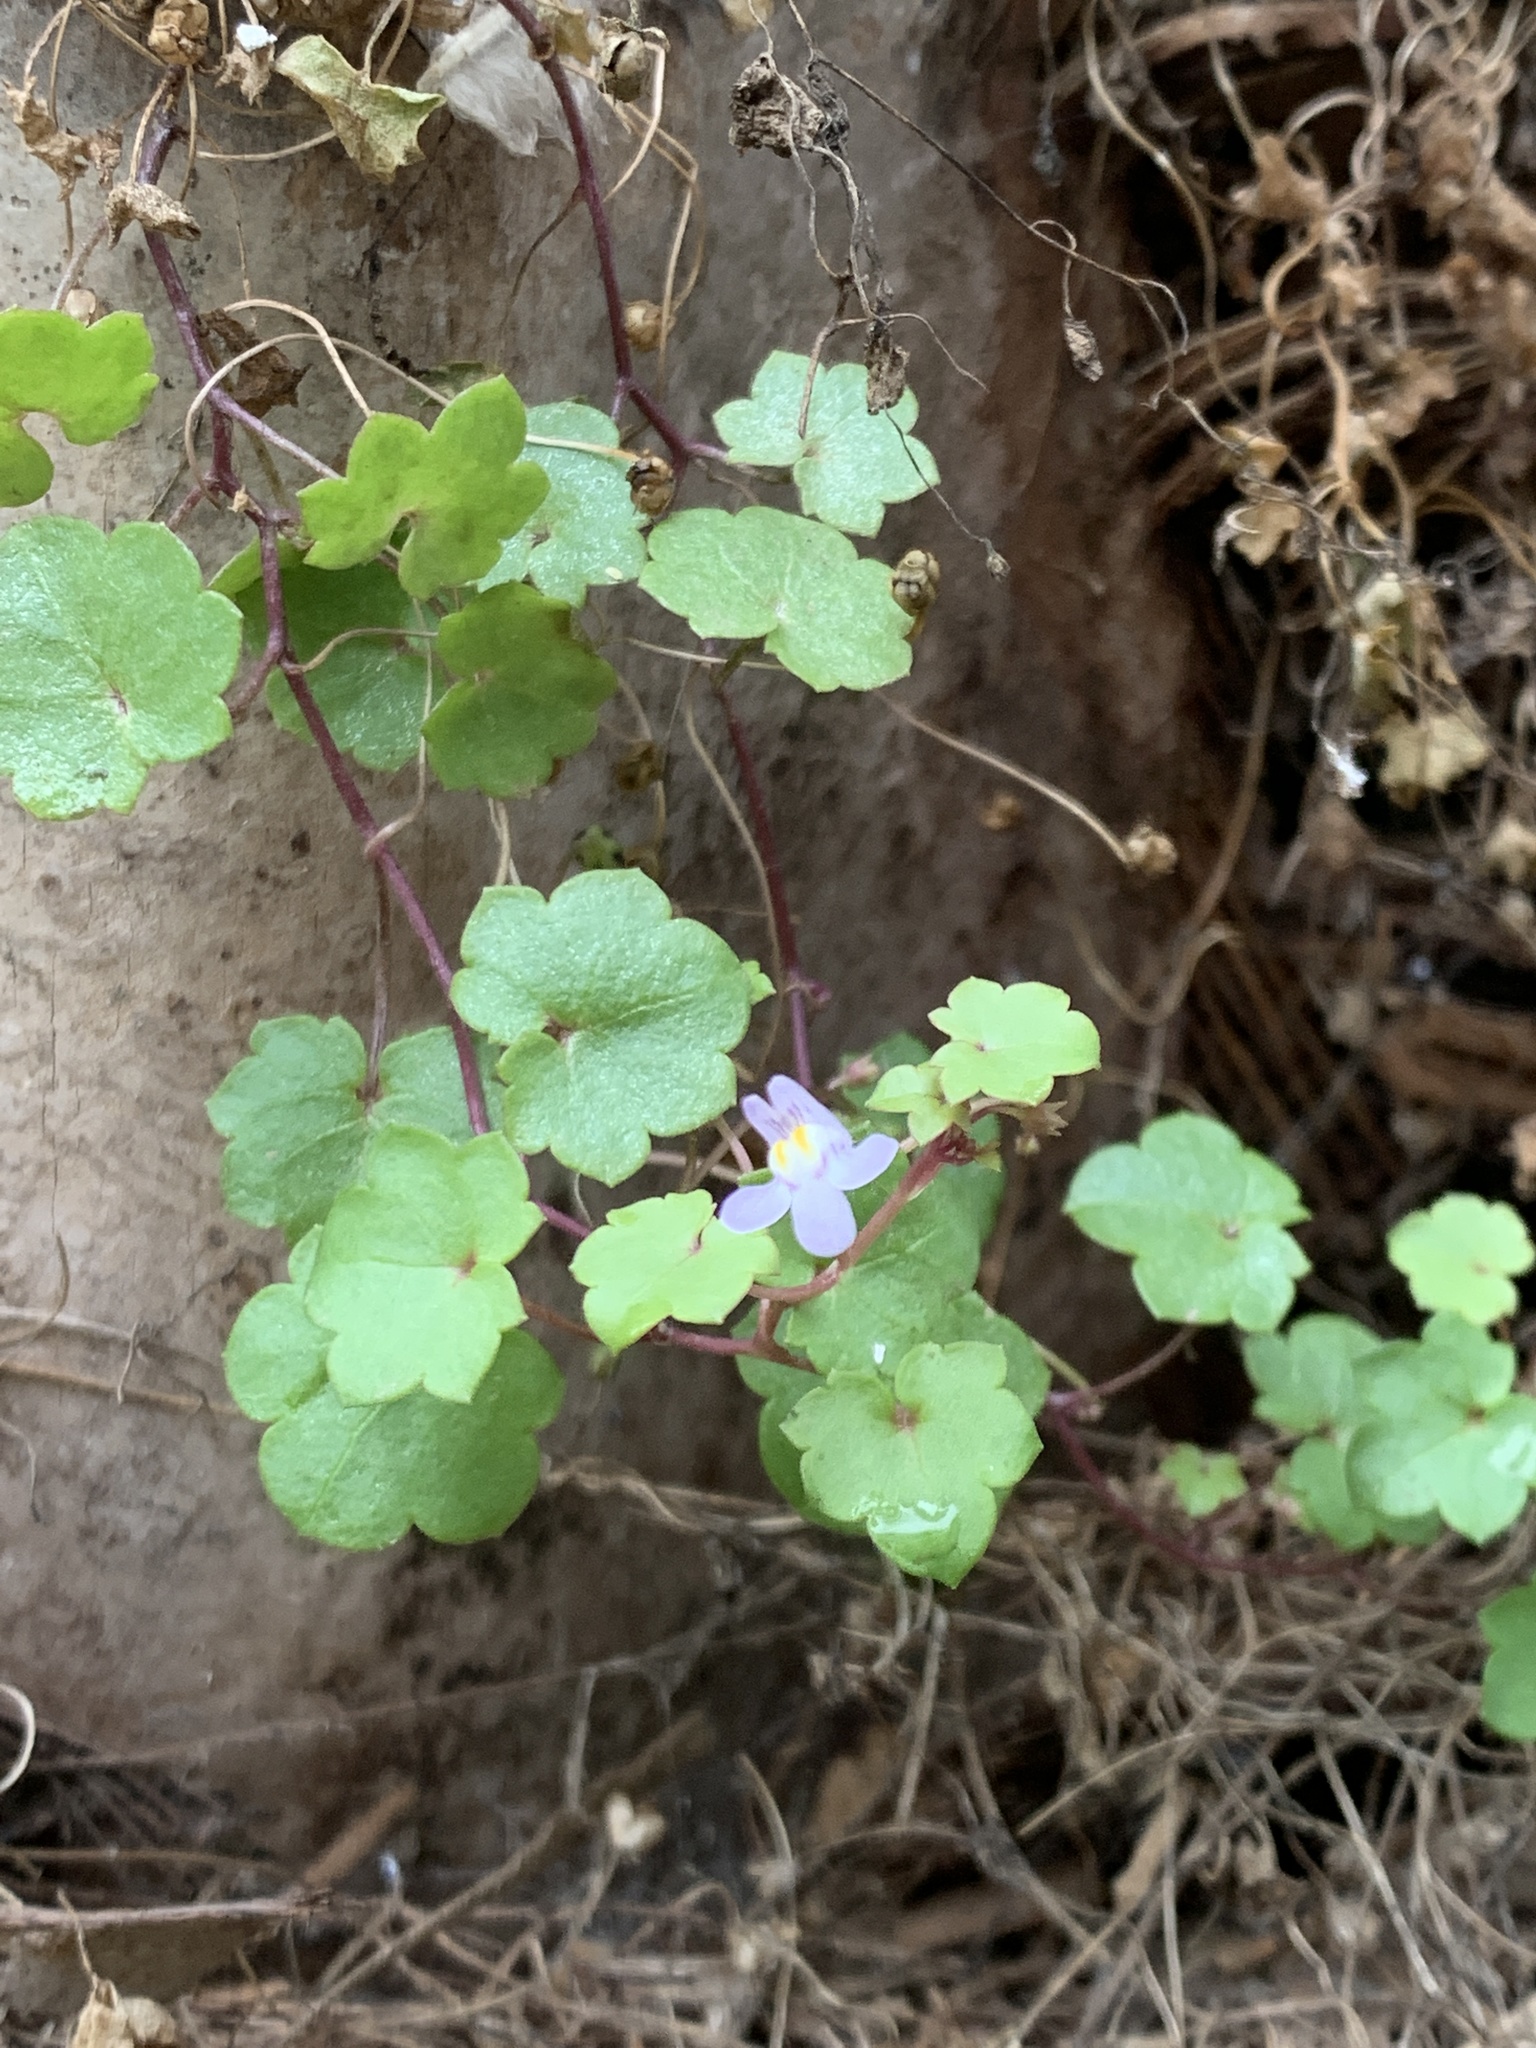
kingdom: Plantae
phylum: Tracheophyta
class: Magnoliopsida
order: Lamiales
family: Plantaginaceae
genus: Cymbalaria
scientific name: Cymbalaria muralis
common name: Ivy-leaved toadflax
